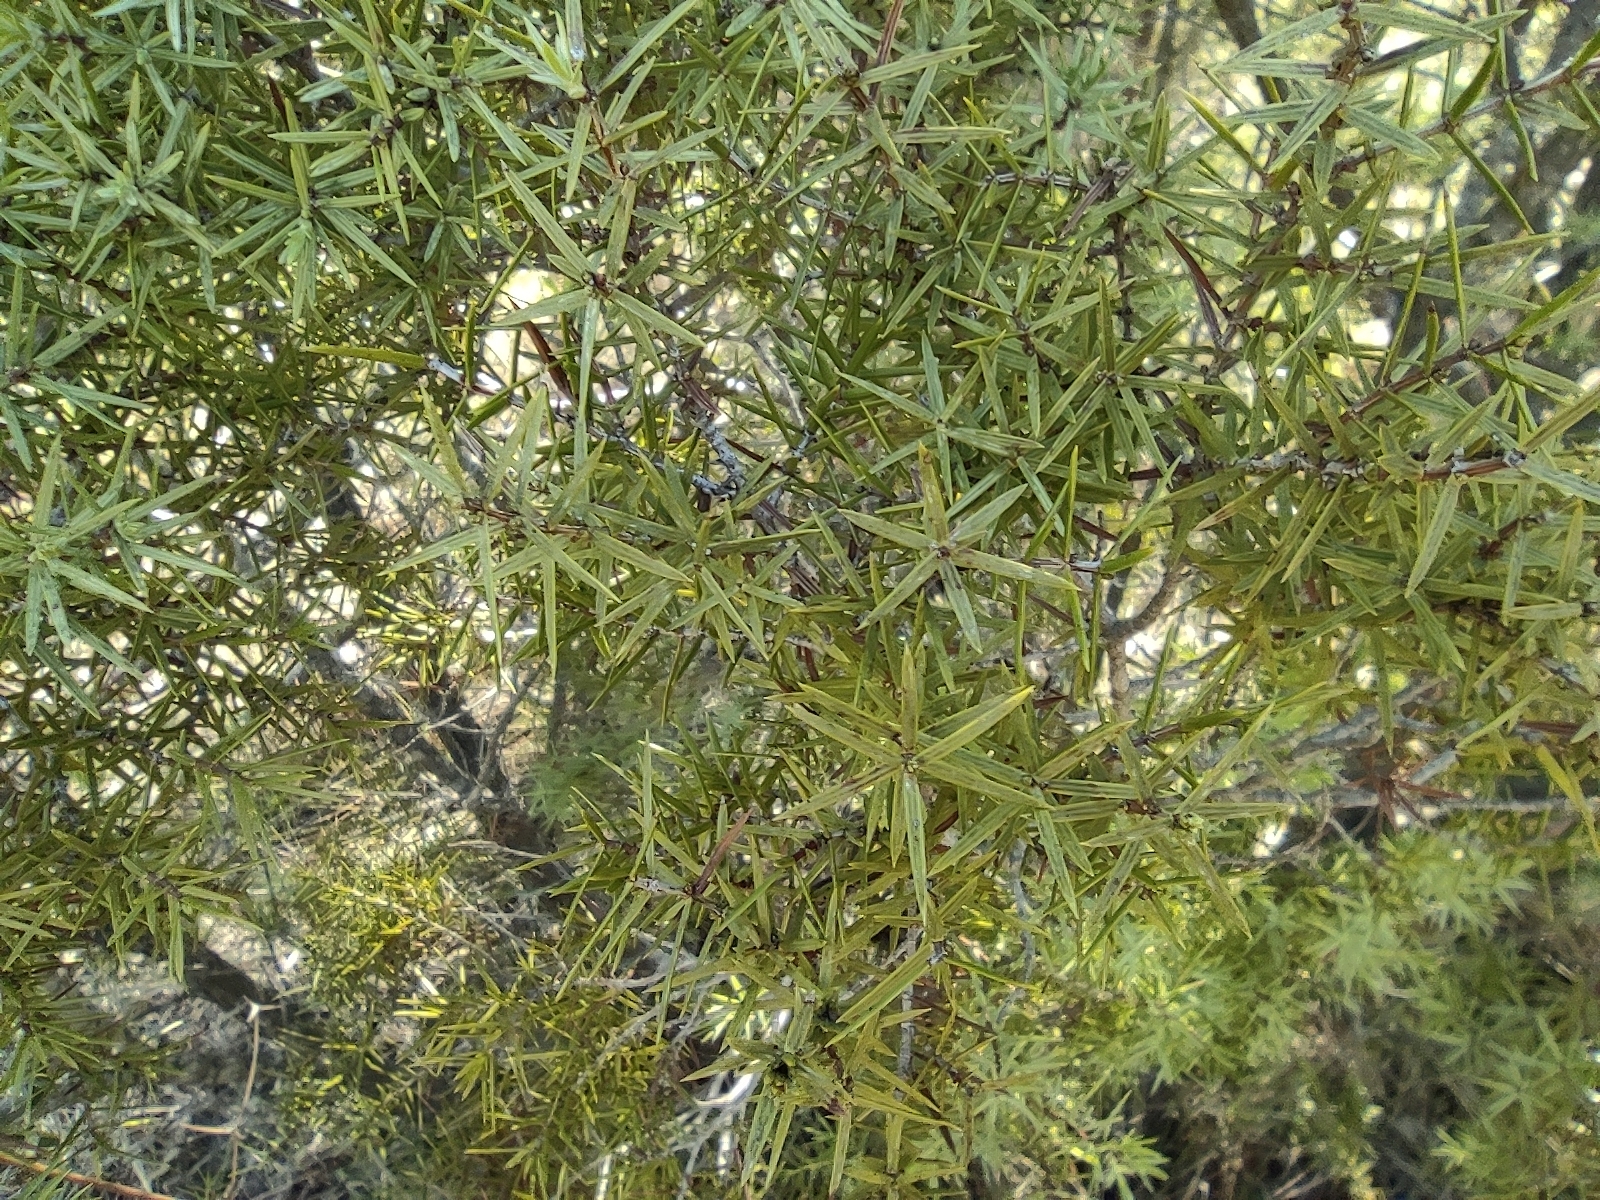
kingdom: Plantae
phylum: Tracheophyta
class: Pinopsida
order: Pinales
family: Cupressaceae
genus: Juniperus
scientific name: Juniperus oxycedrus
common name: Prickly juniper
